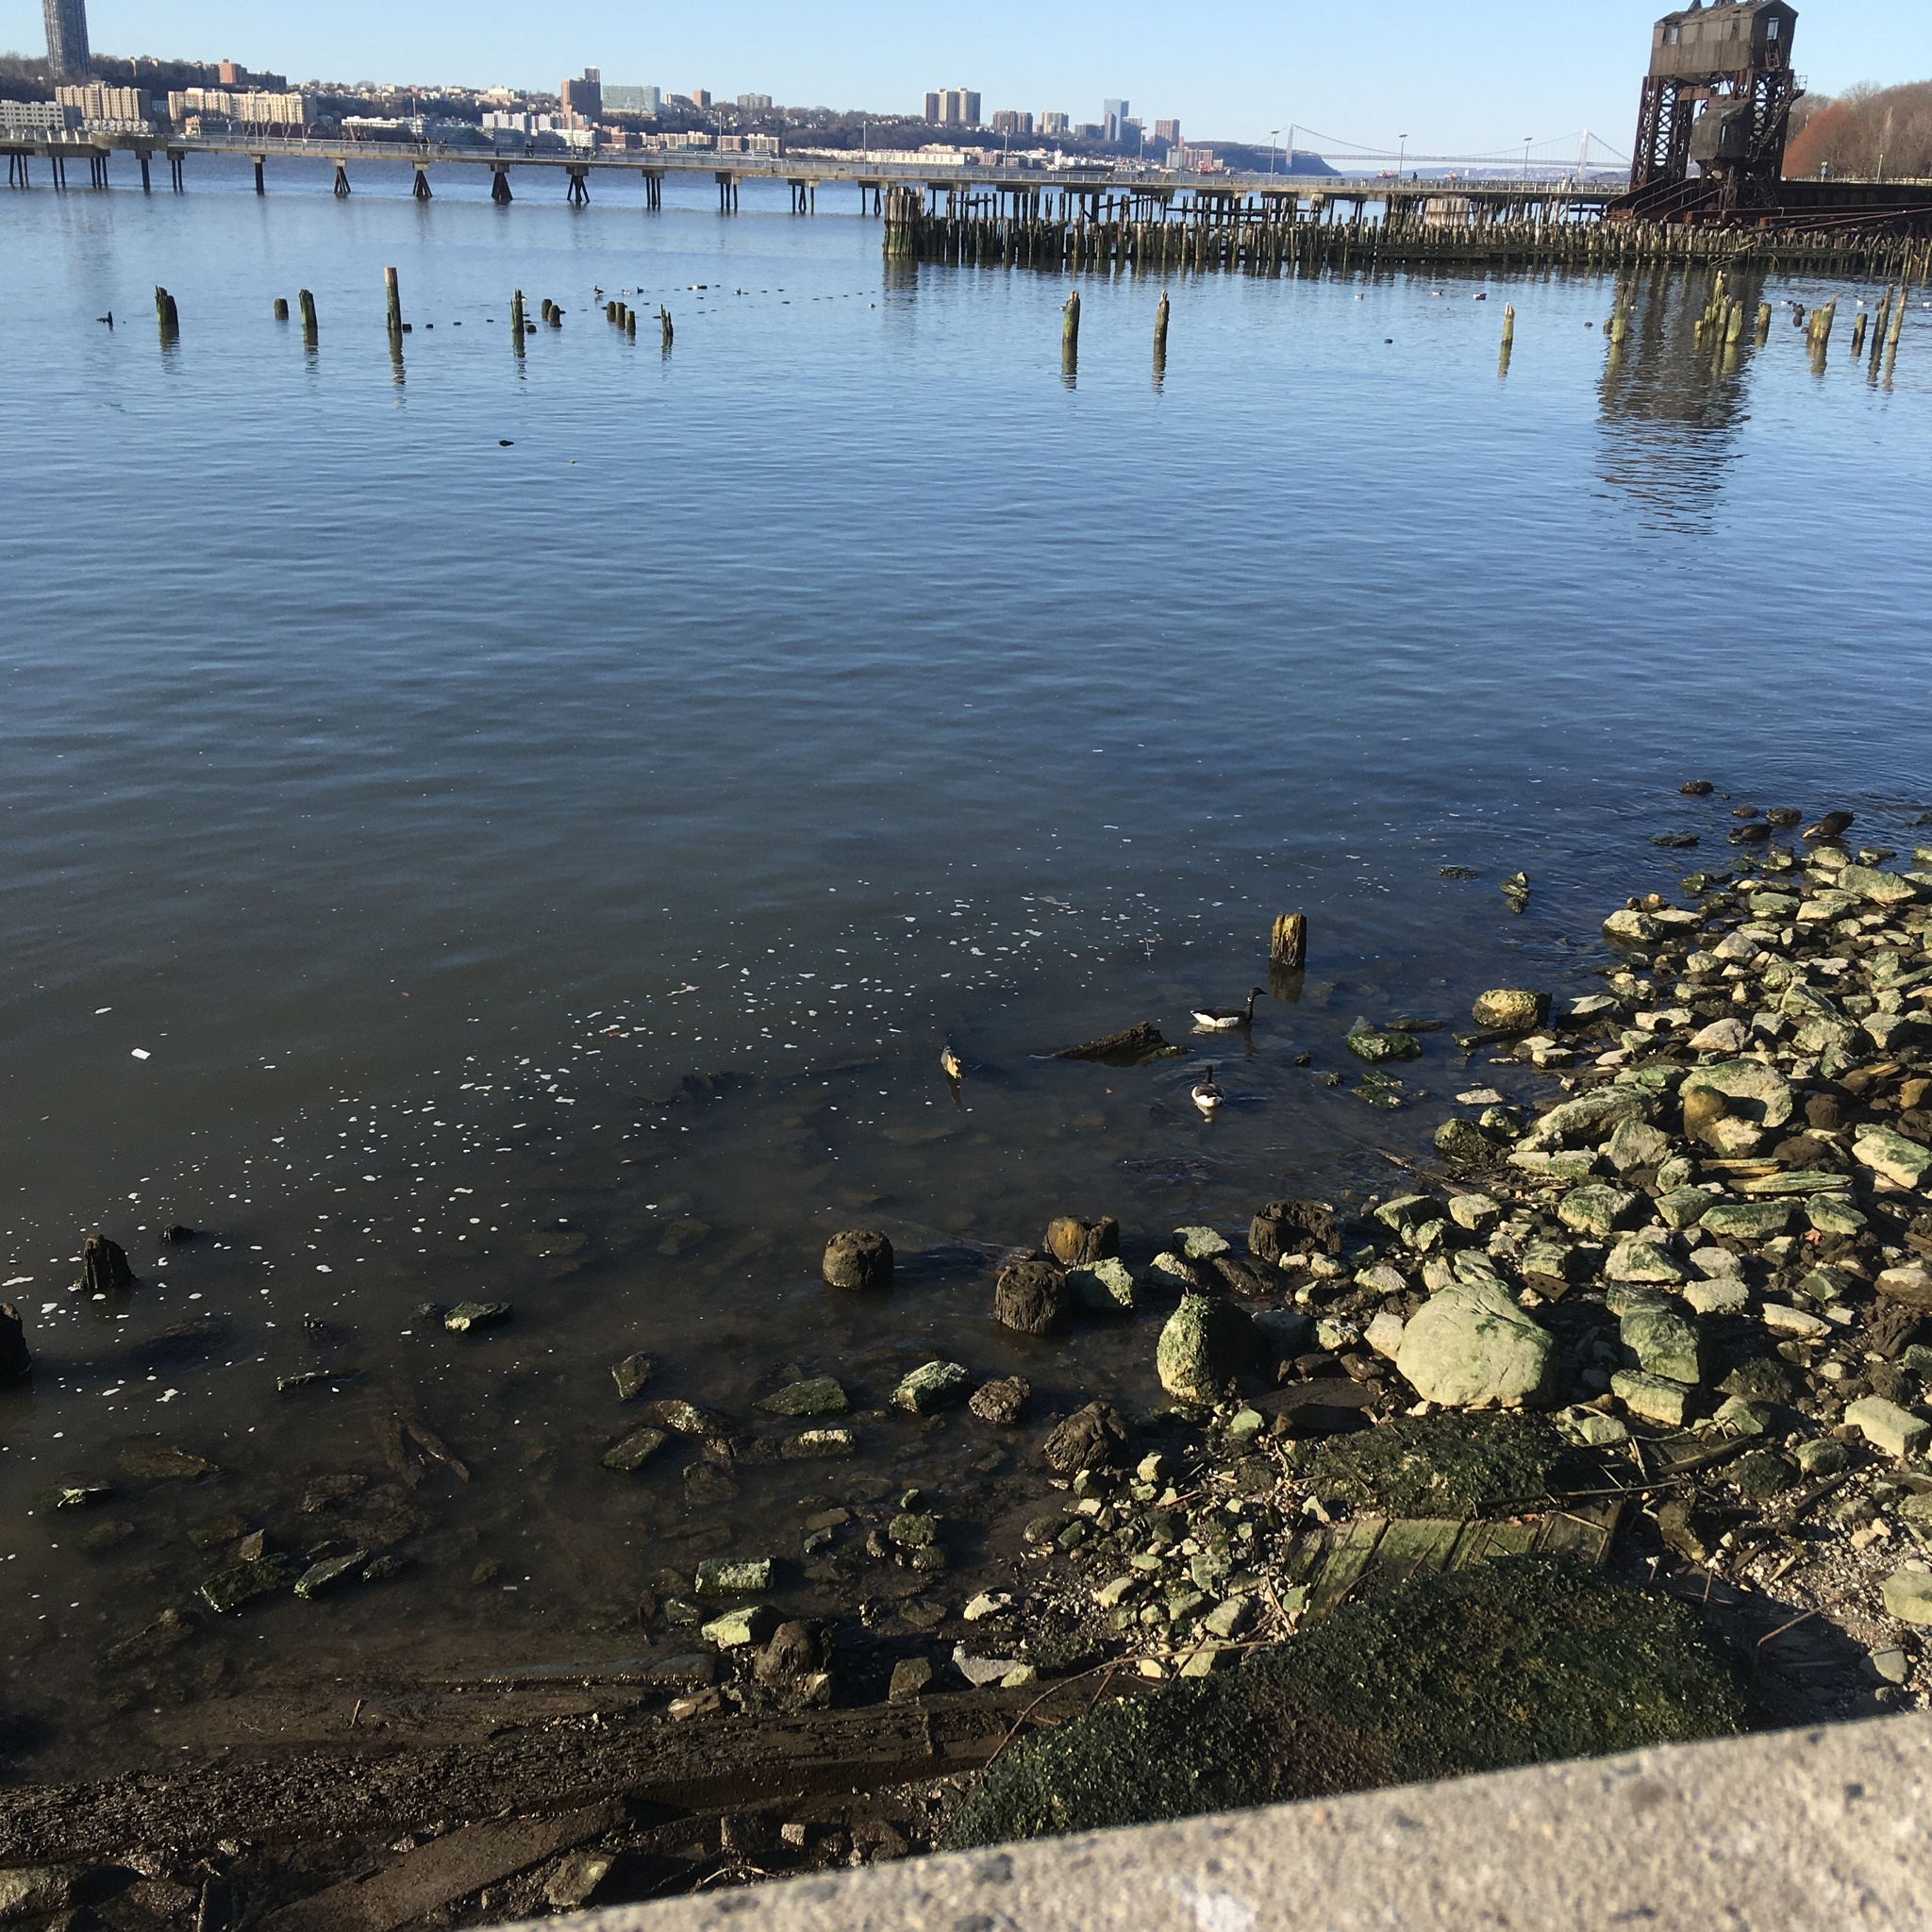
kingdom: Animalia
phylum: Chordata
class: Aves
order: Anseriformes
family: Anatidae
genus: Branta
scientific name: Branta bernicla
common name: Brant goose
